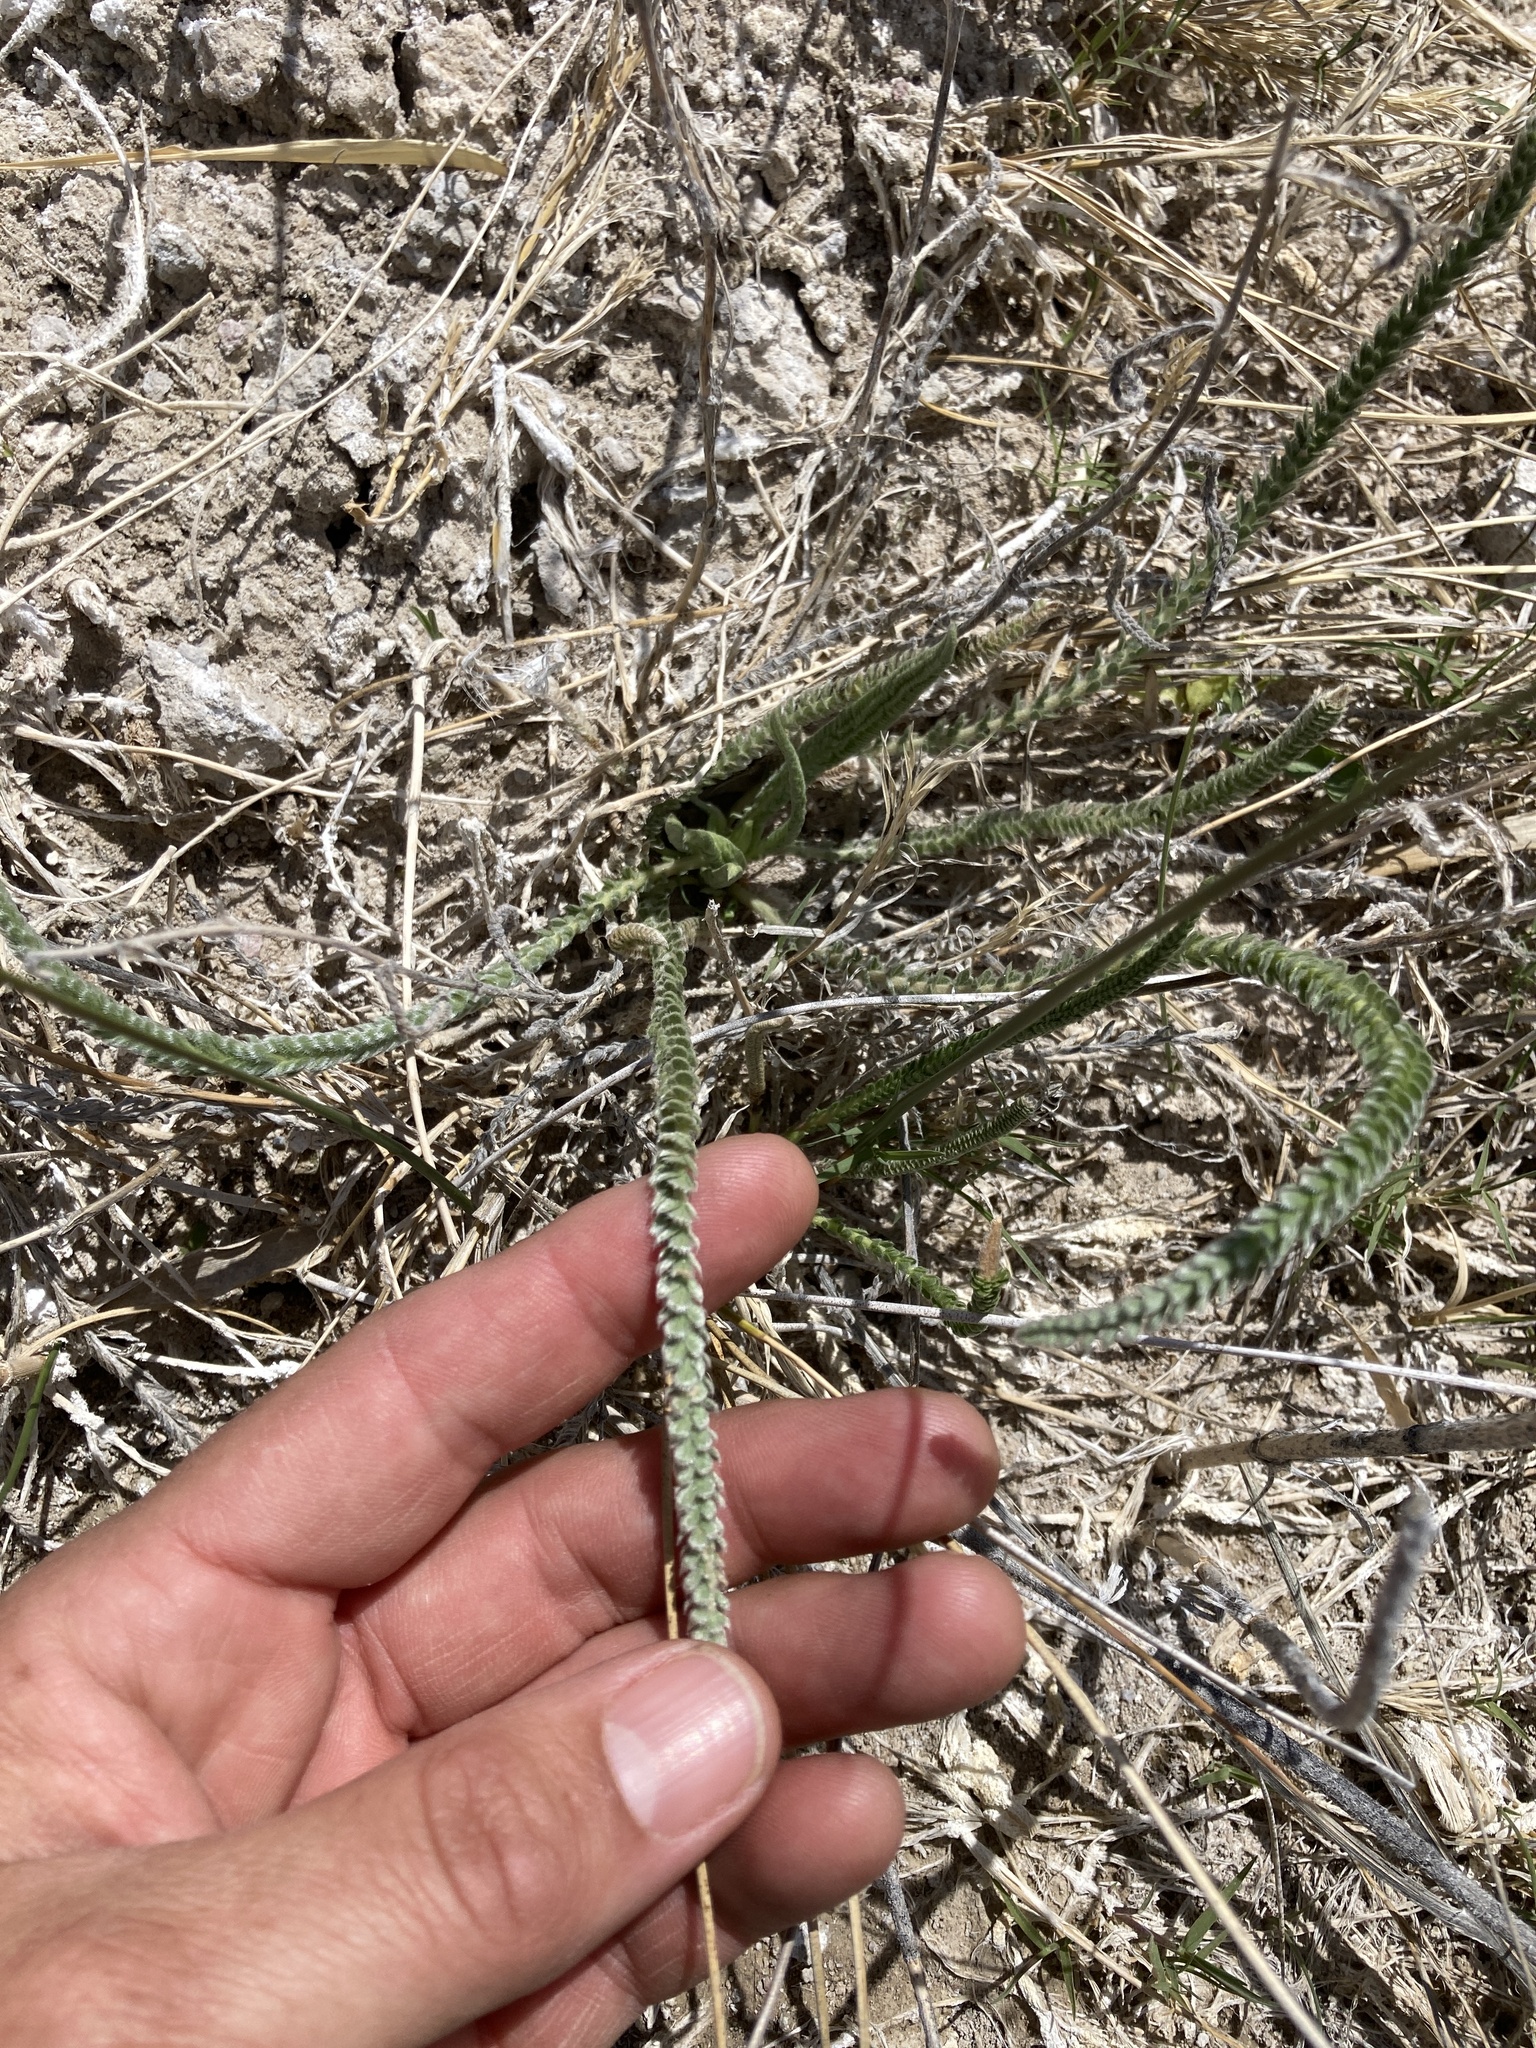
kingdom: Plantae
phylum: Tracheophyta
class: Magnoliopsida
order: Rosales
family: Rosaceae
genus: Potentilla
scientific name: Potentilla kingii
